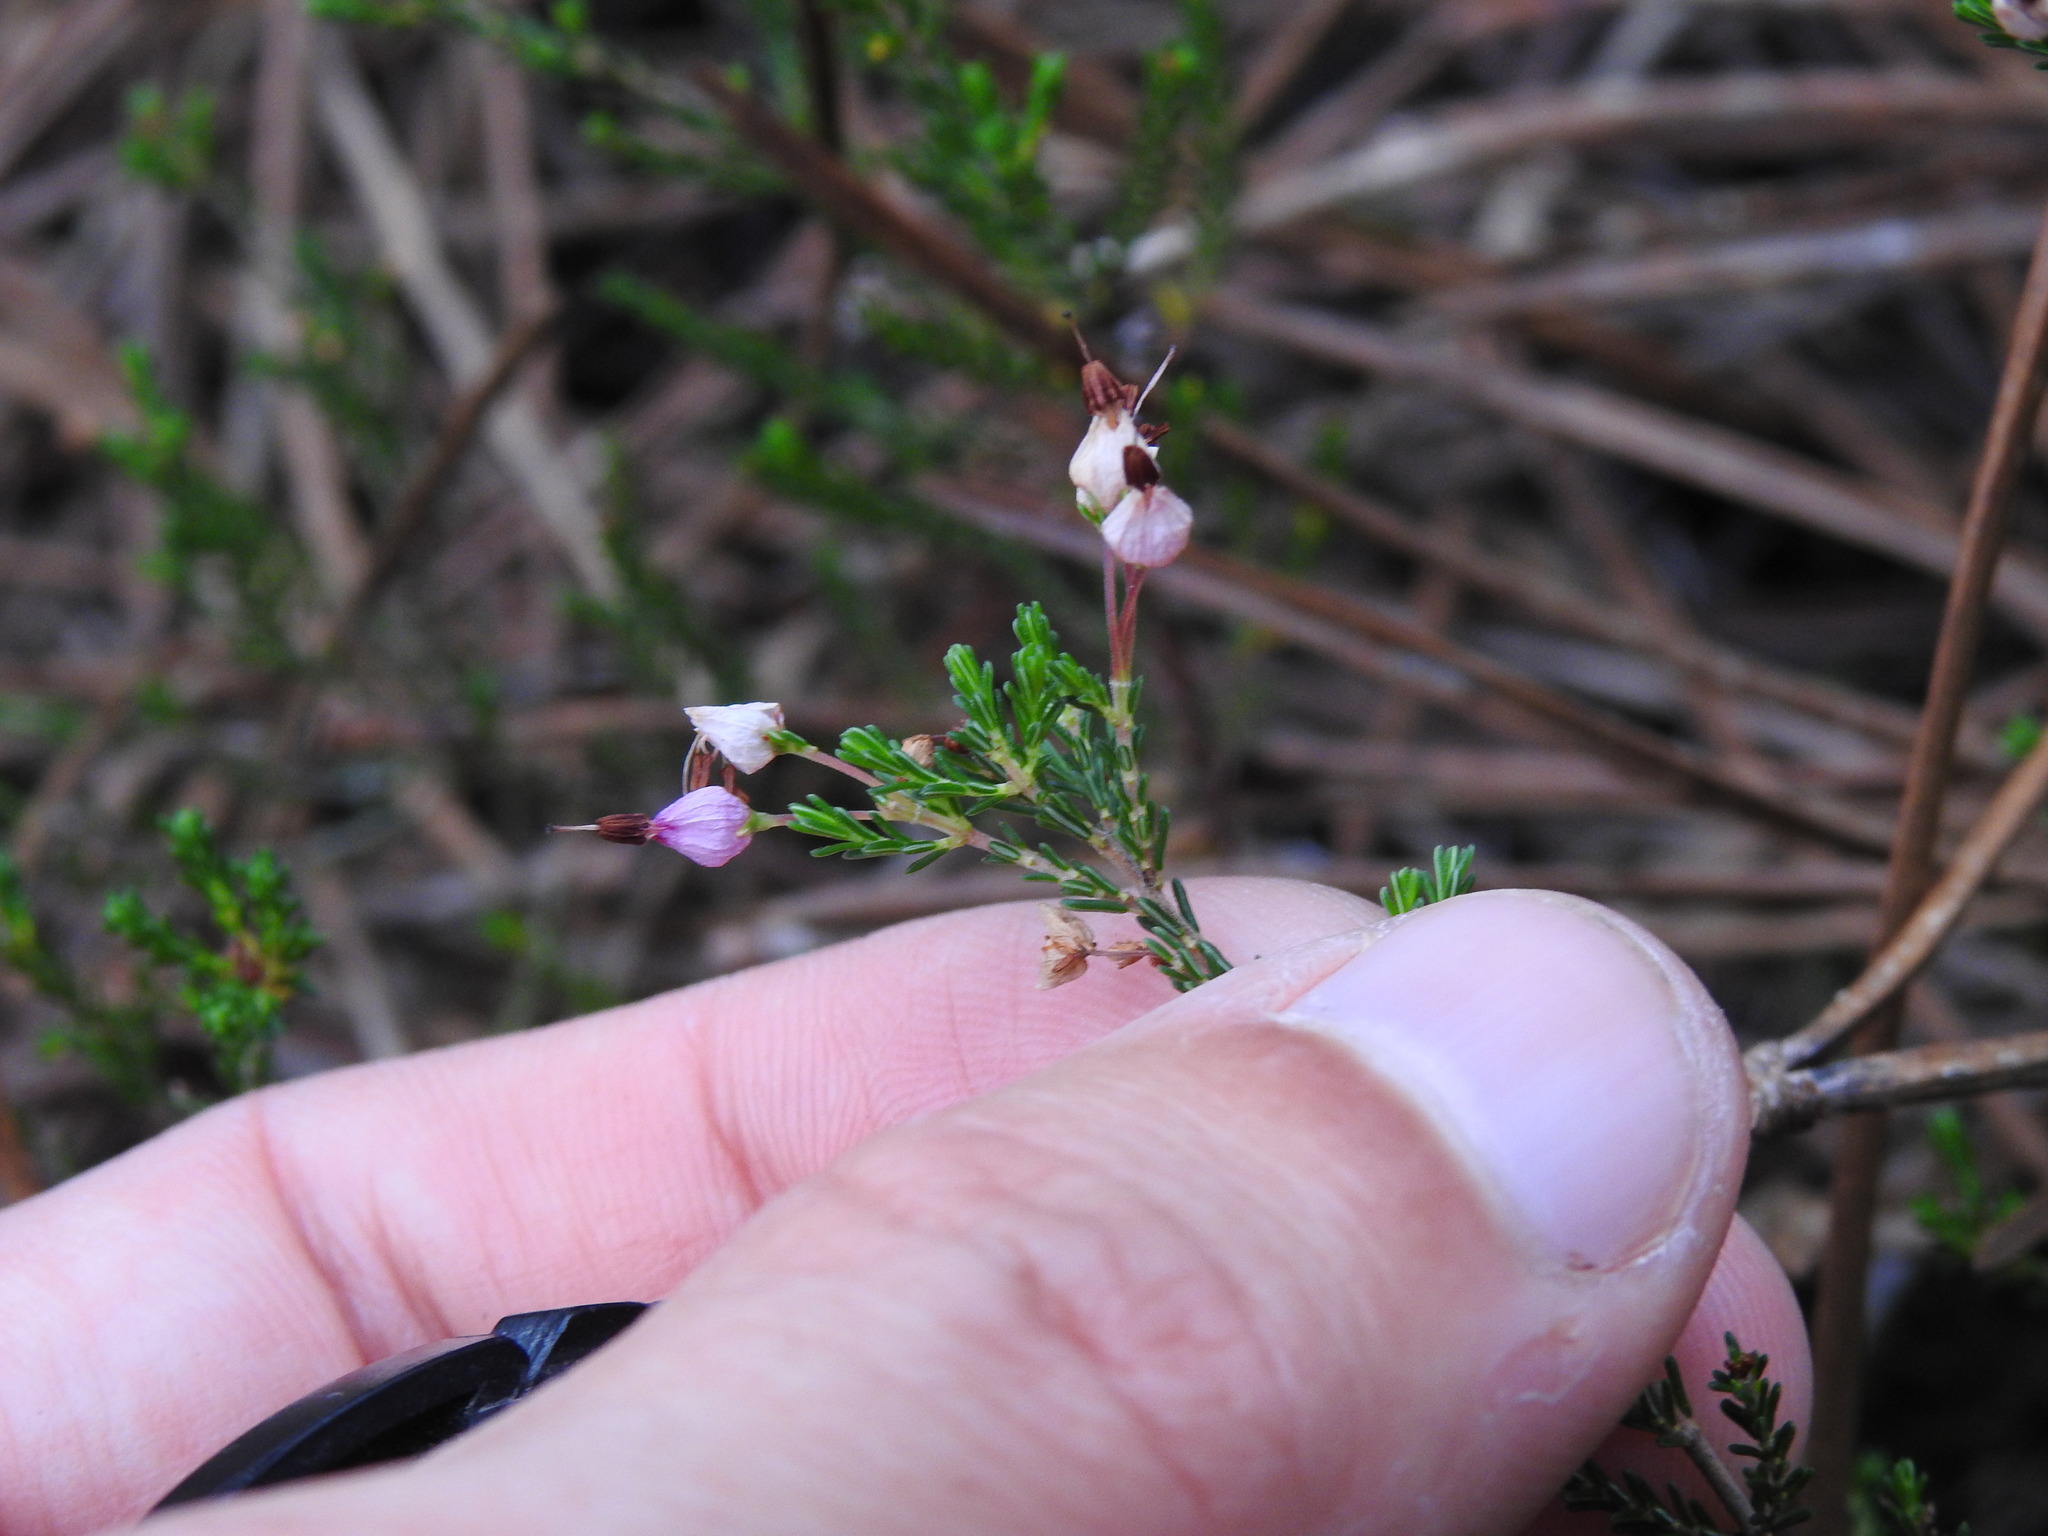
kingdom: Plantae
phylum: Tracheophyta
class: Magnoliopsida
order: Ericales
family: Ericaceae
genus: Erica
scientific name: Erica umbellata
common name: Dwarf spanish heath
